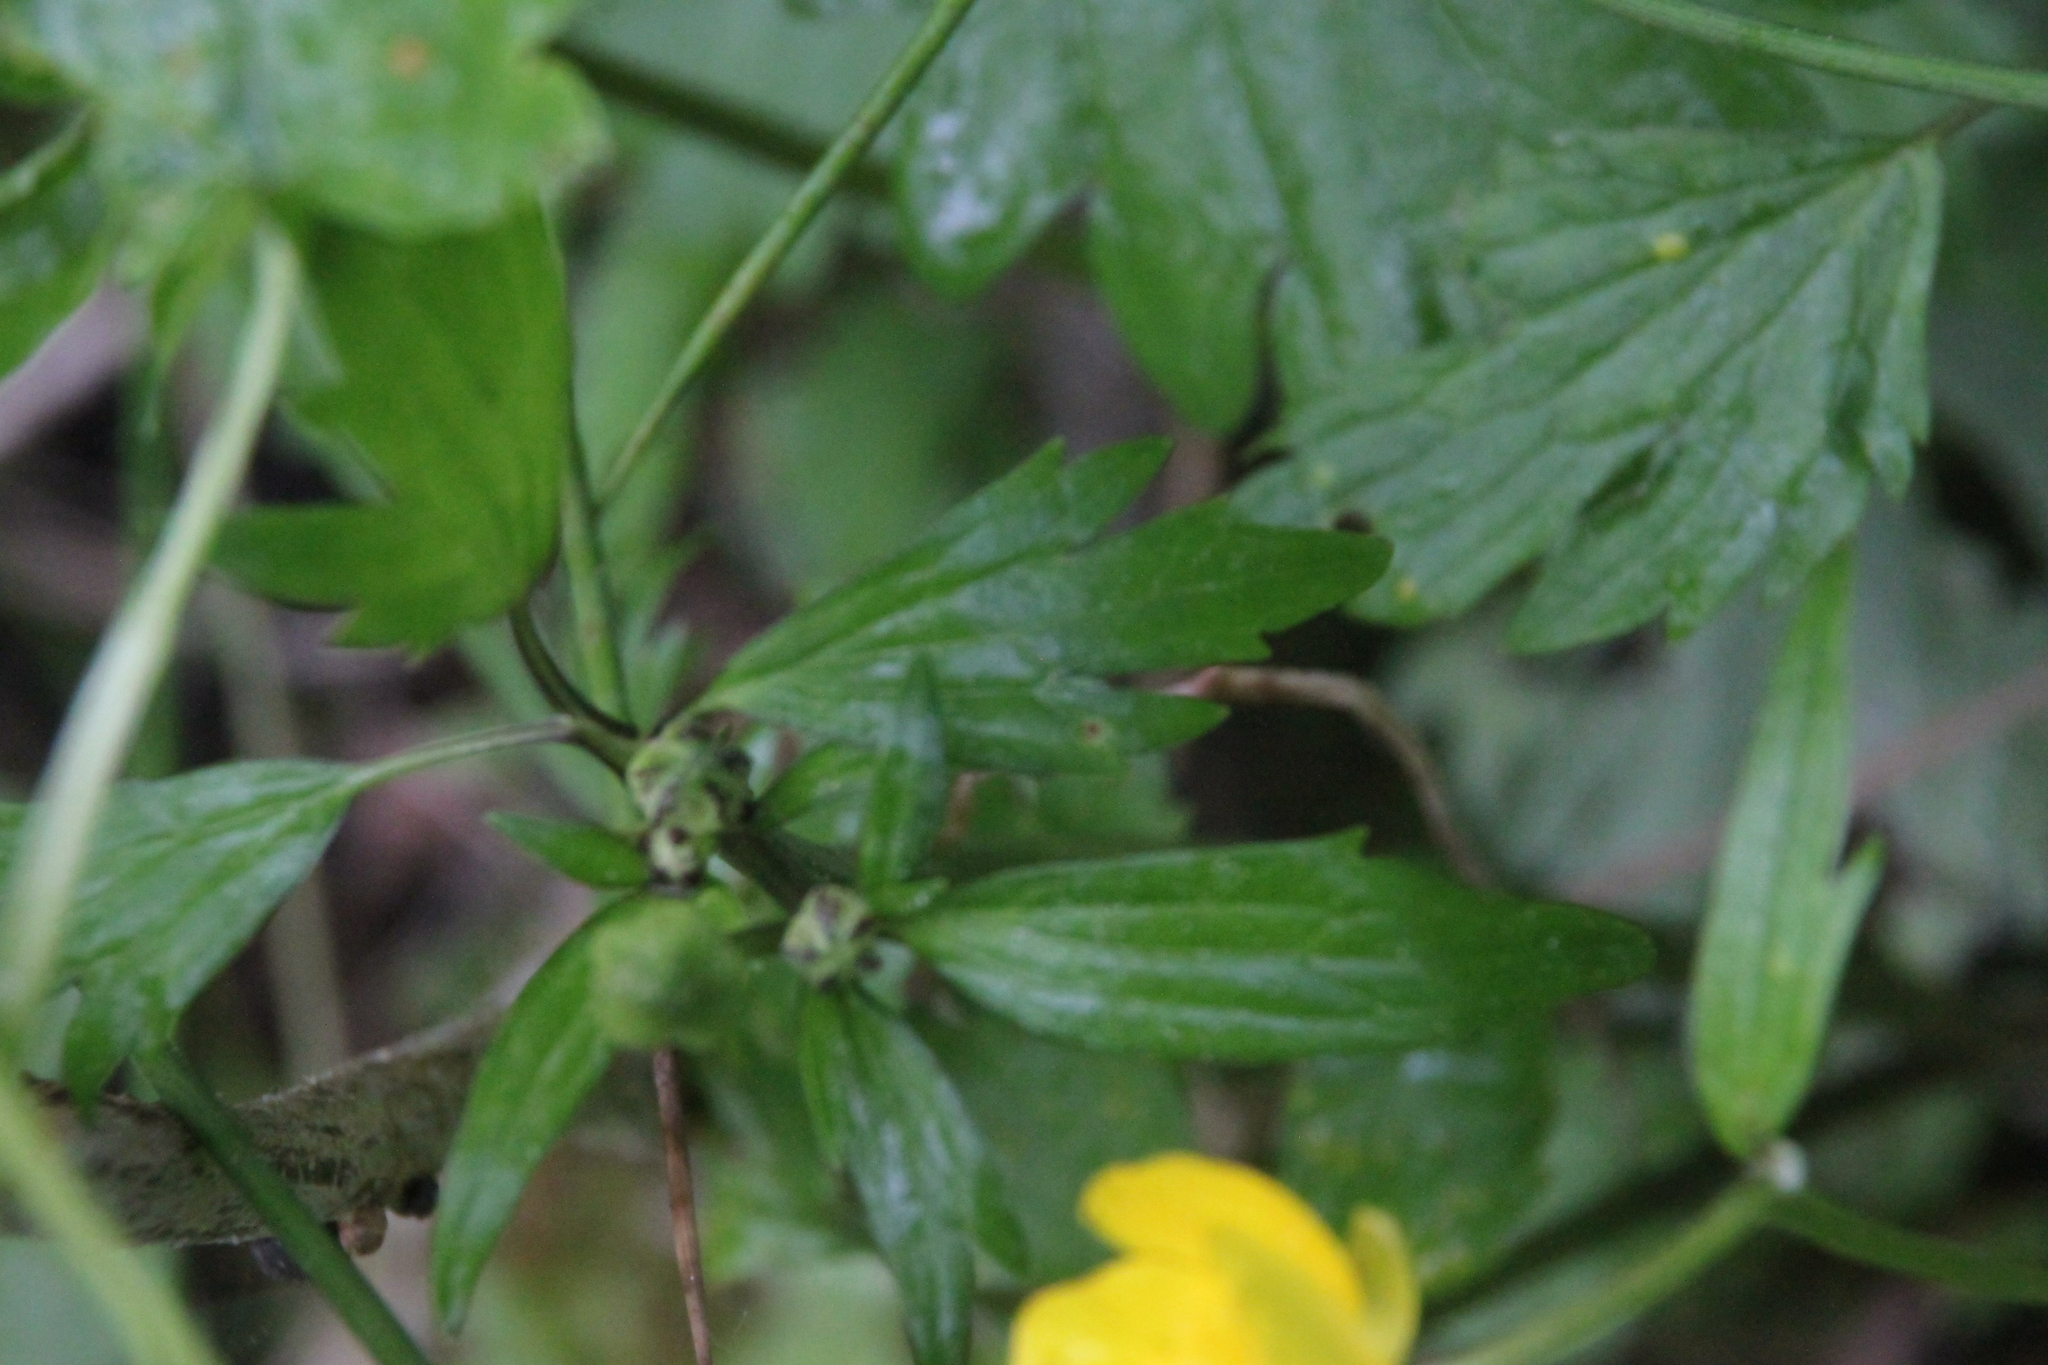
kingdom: Plantae
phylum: Tracheophyta
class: Magnoliopsida
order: Ranunculales
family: Ranunculaceae
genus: Ranunculus
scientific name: Ranunculus repens
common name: Creeping buttercup
